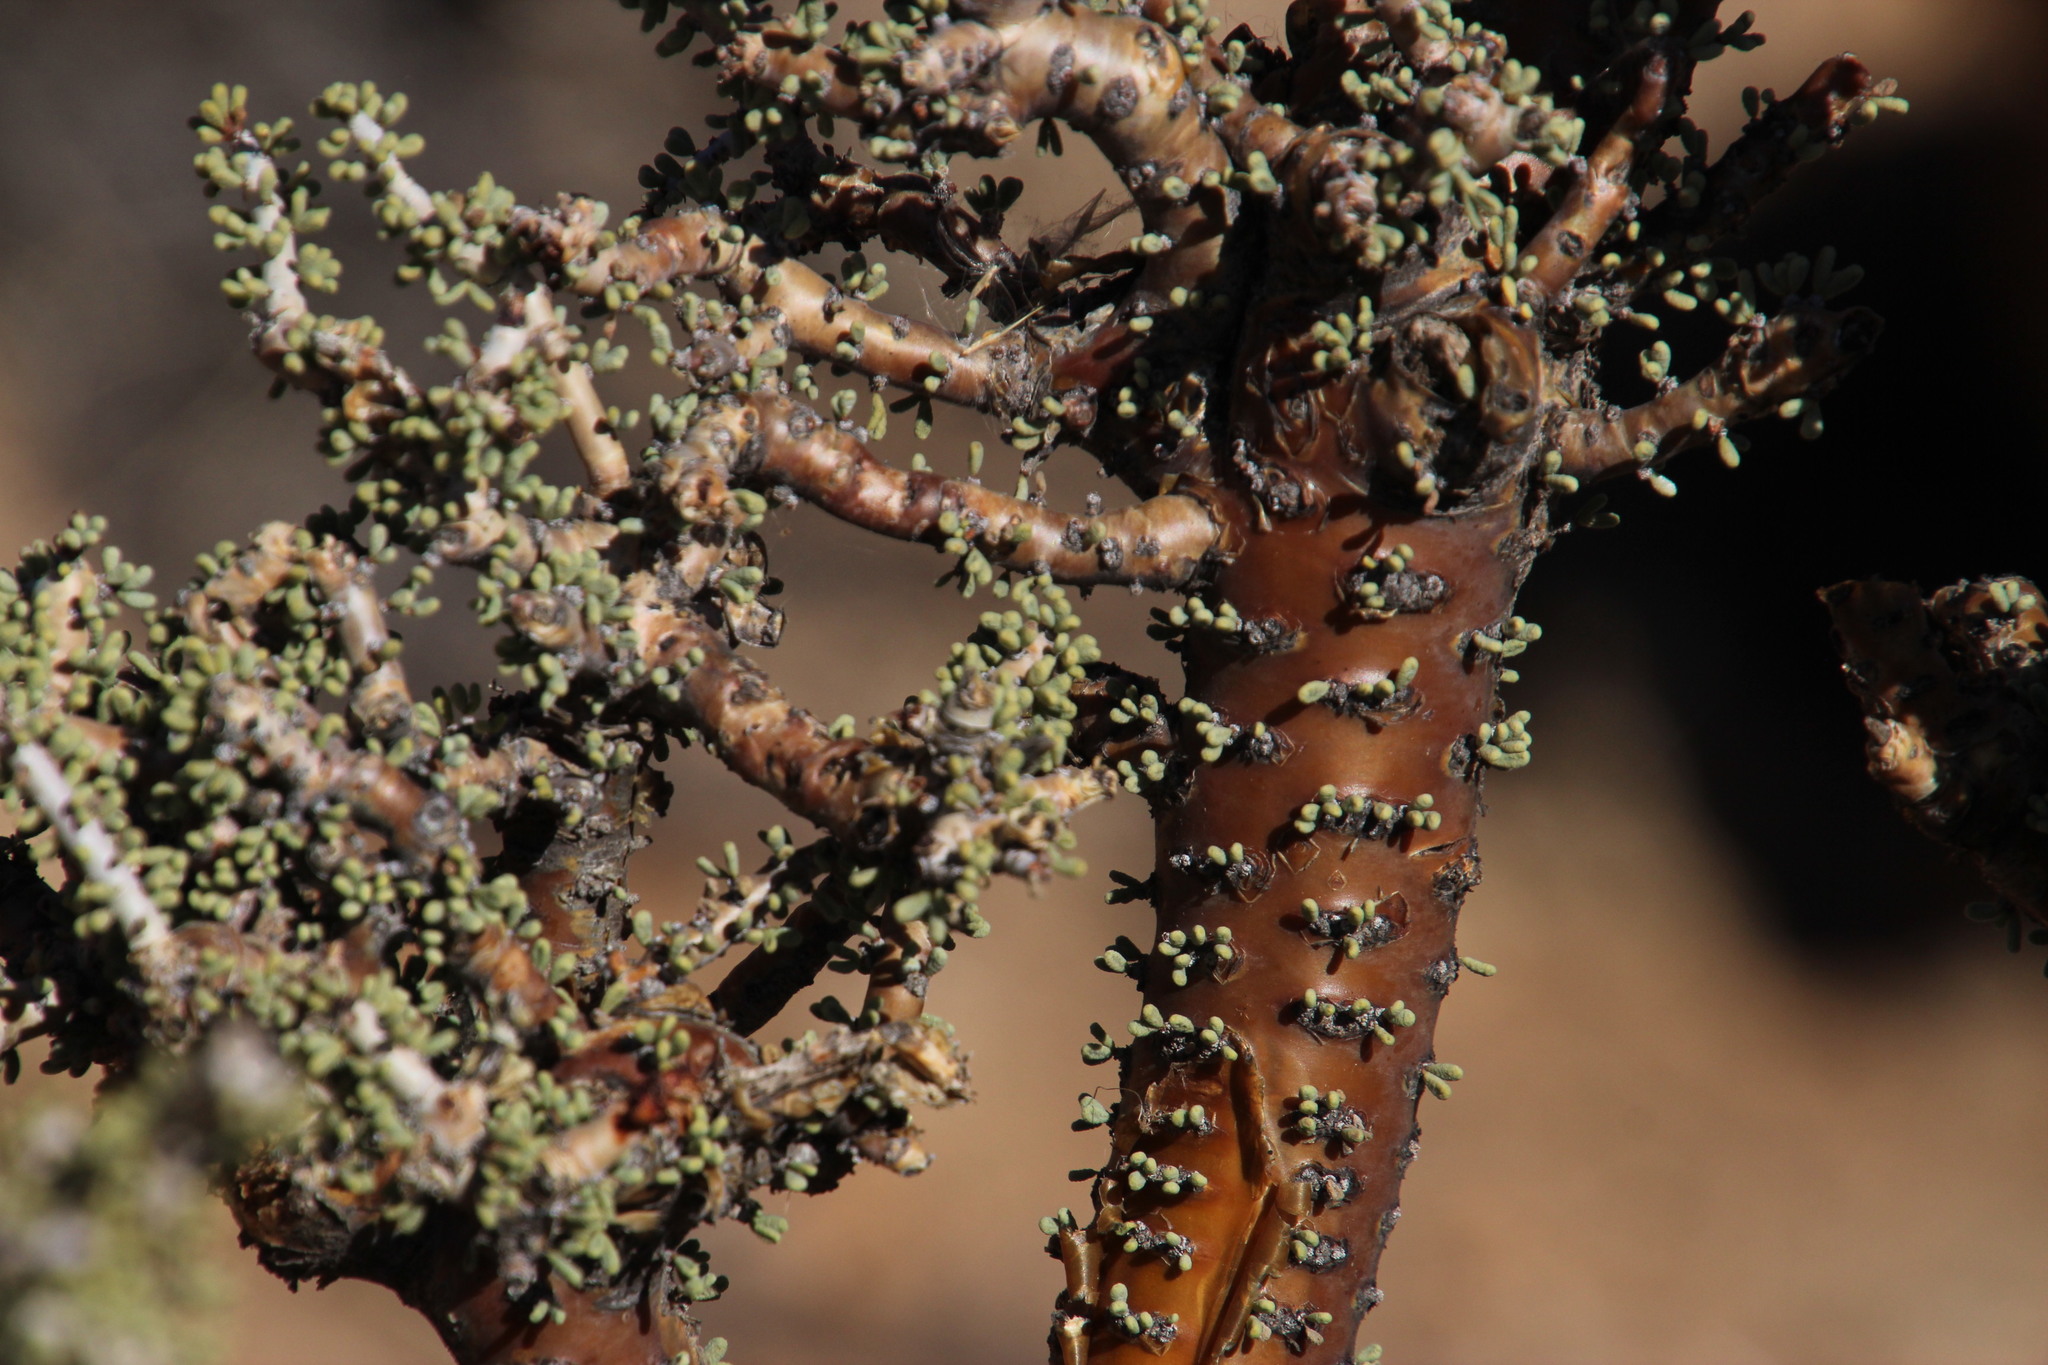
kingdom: Plantae
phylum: Tracheophyta
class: Magnoliopsida
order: Caryophyllales
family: Didiereaceae
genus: Portulacaria
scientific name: Portulacaria namaquensis
